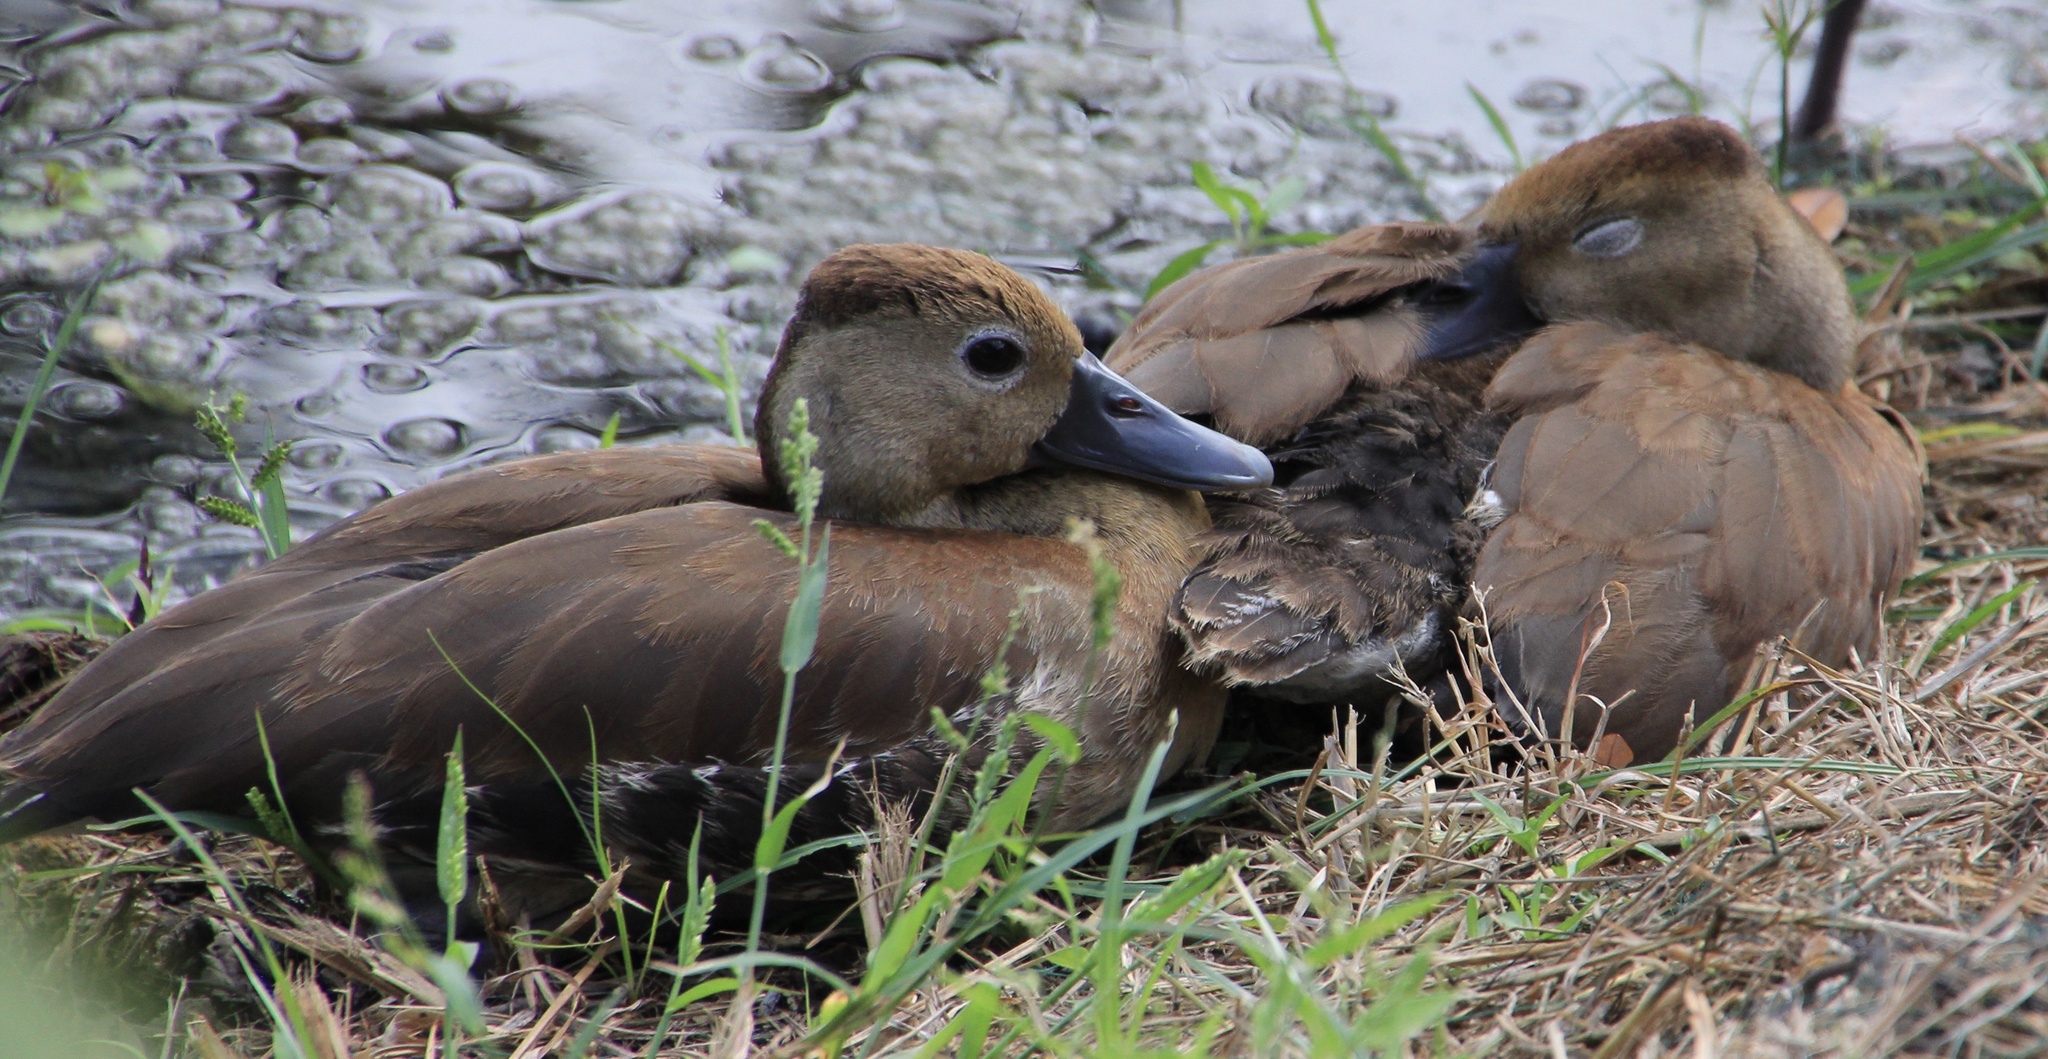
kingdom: Animalia
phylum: Chordata
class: Aves
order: Anseriformes
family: Anatidae
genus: Dendrocygna
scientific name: Dendrocygna autumnalis
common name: Black-bellied whistling duck
